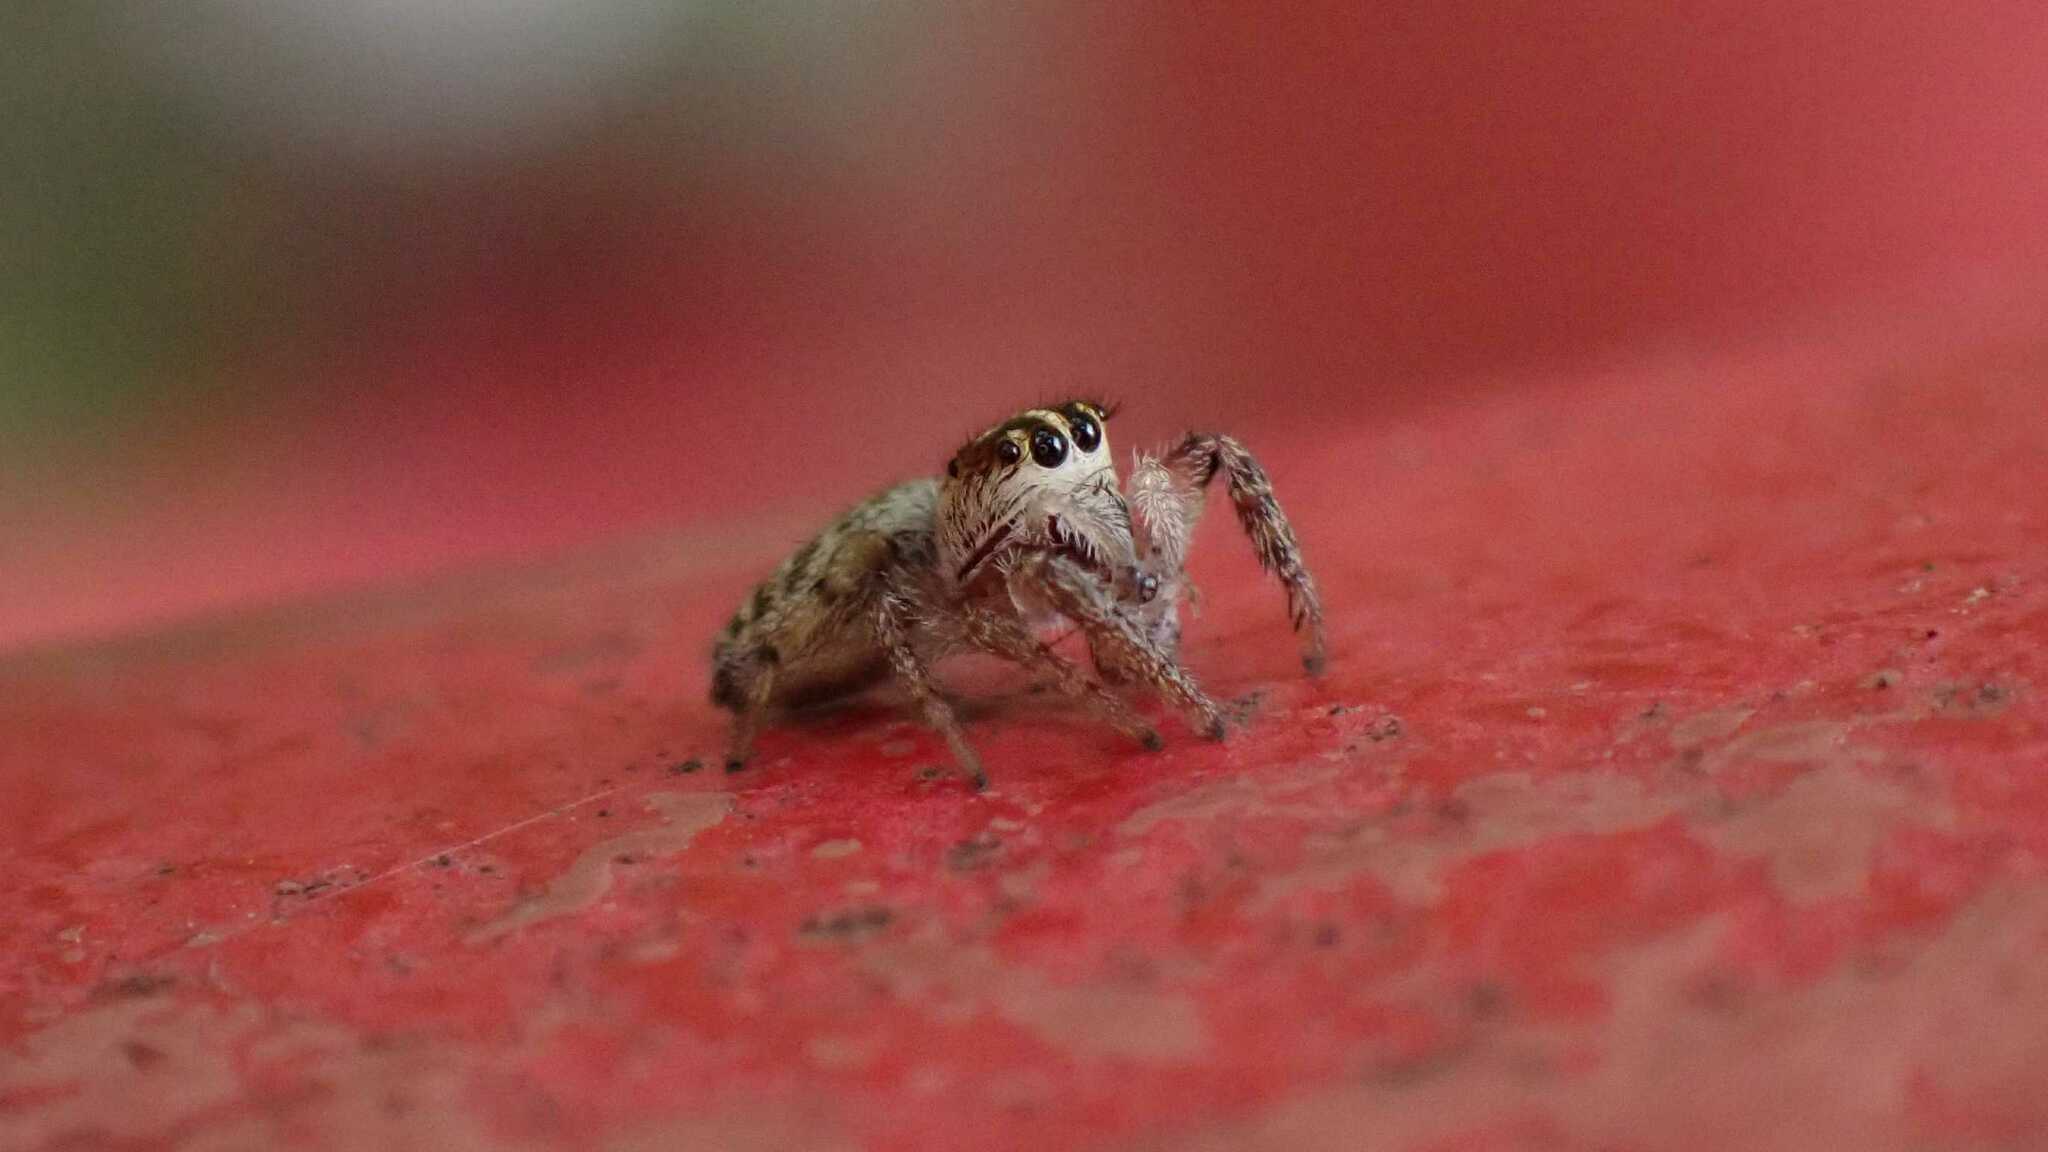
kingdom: Animalia
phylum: Arthropoda
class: Arachnida
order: Araneae
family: Salticidae
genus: Macaroeris
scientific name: Macaroeris nidicolens
